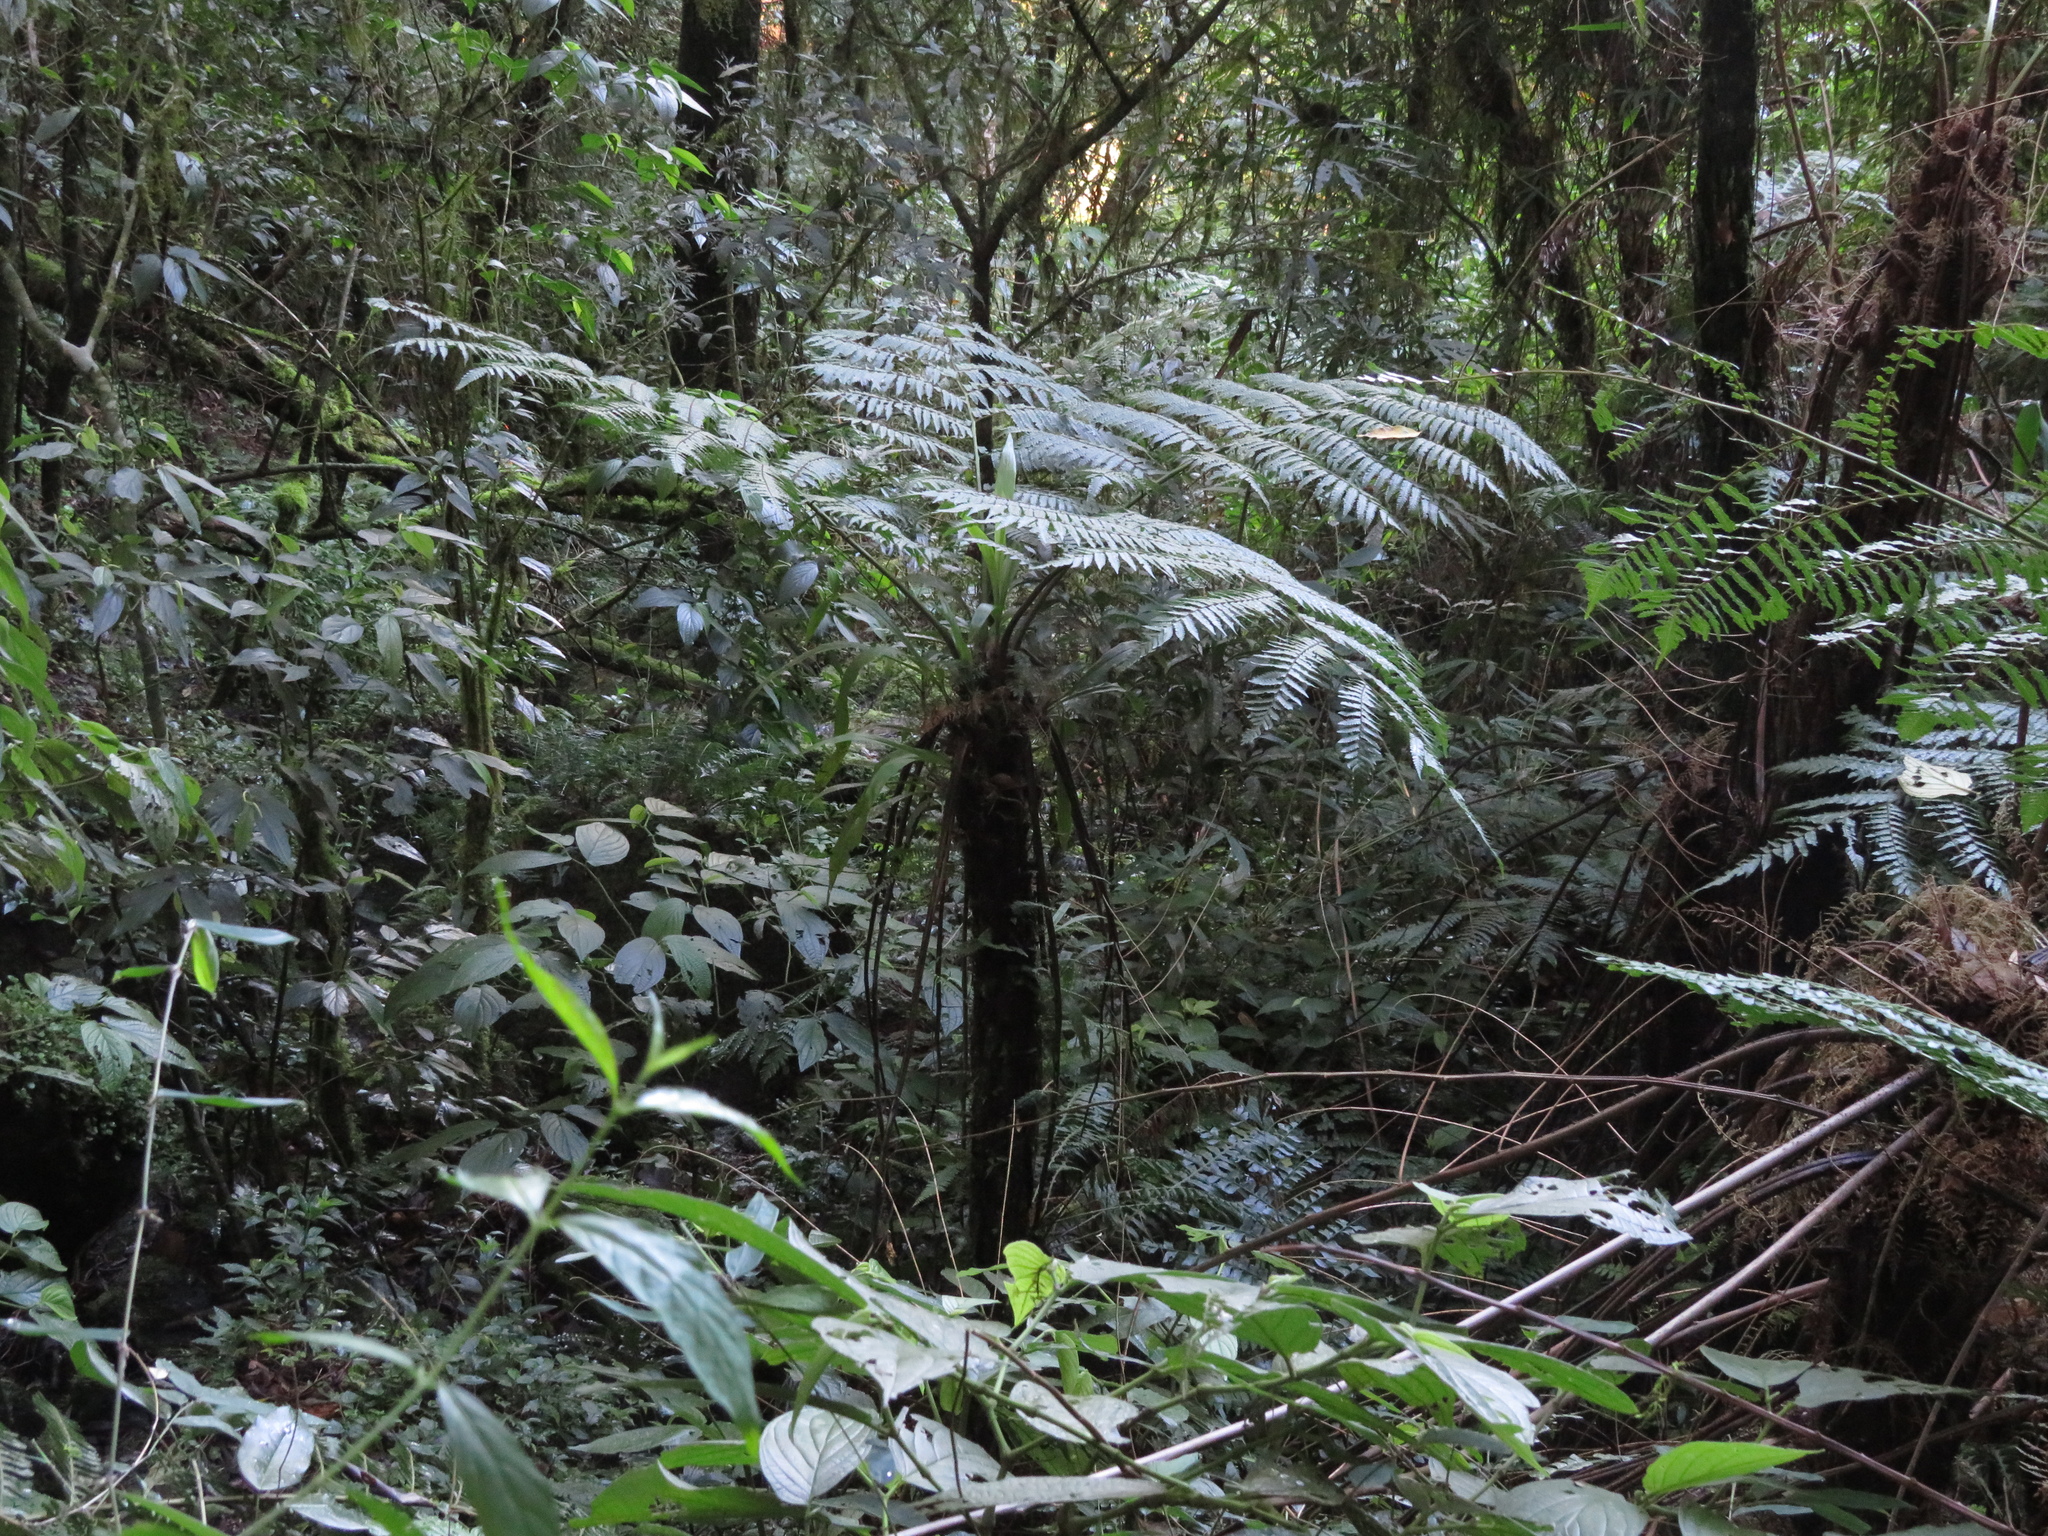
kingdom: Plantae
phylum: Tracheophyta
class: Polypodiopsida
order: Cyatheales
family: Cyatheaceae
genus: Alsophila
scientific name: Alsophila setosa
